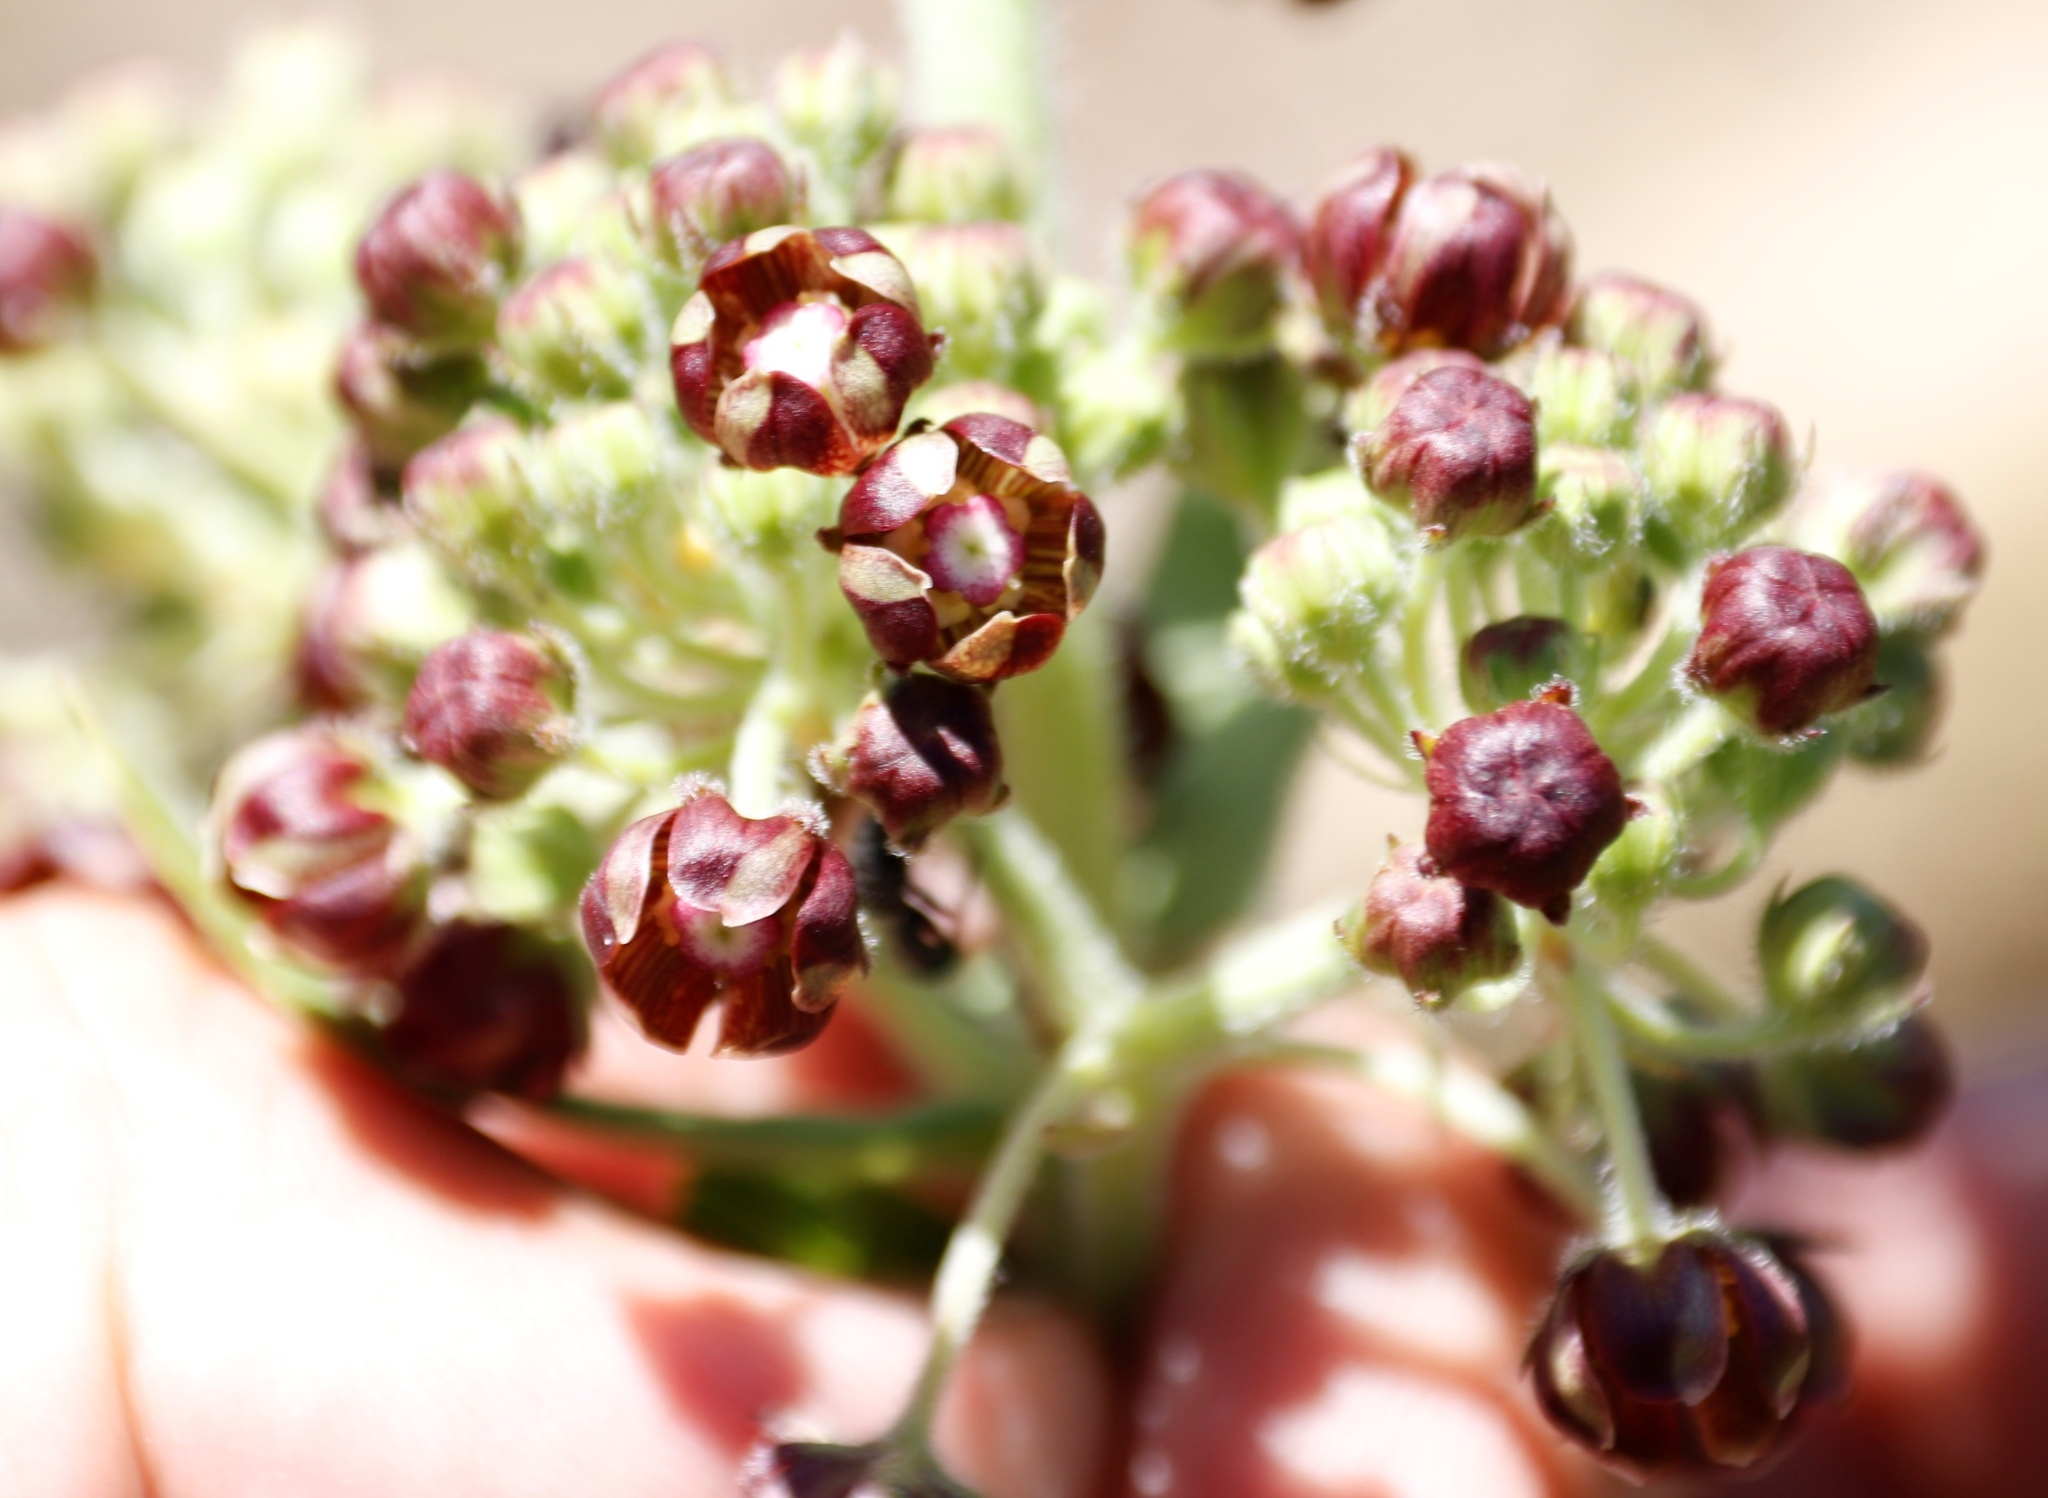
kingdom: Plantae
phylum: Tracheophyta
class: Magnoliopsida
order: Gentianales
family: Apocynaceae
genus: Schizoglossum
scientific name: Schizoglossum atropurpureum
